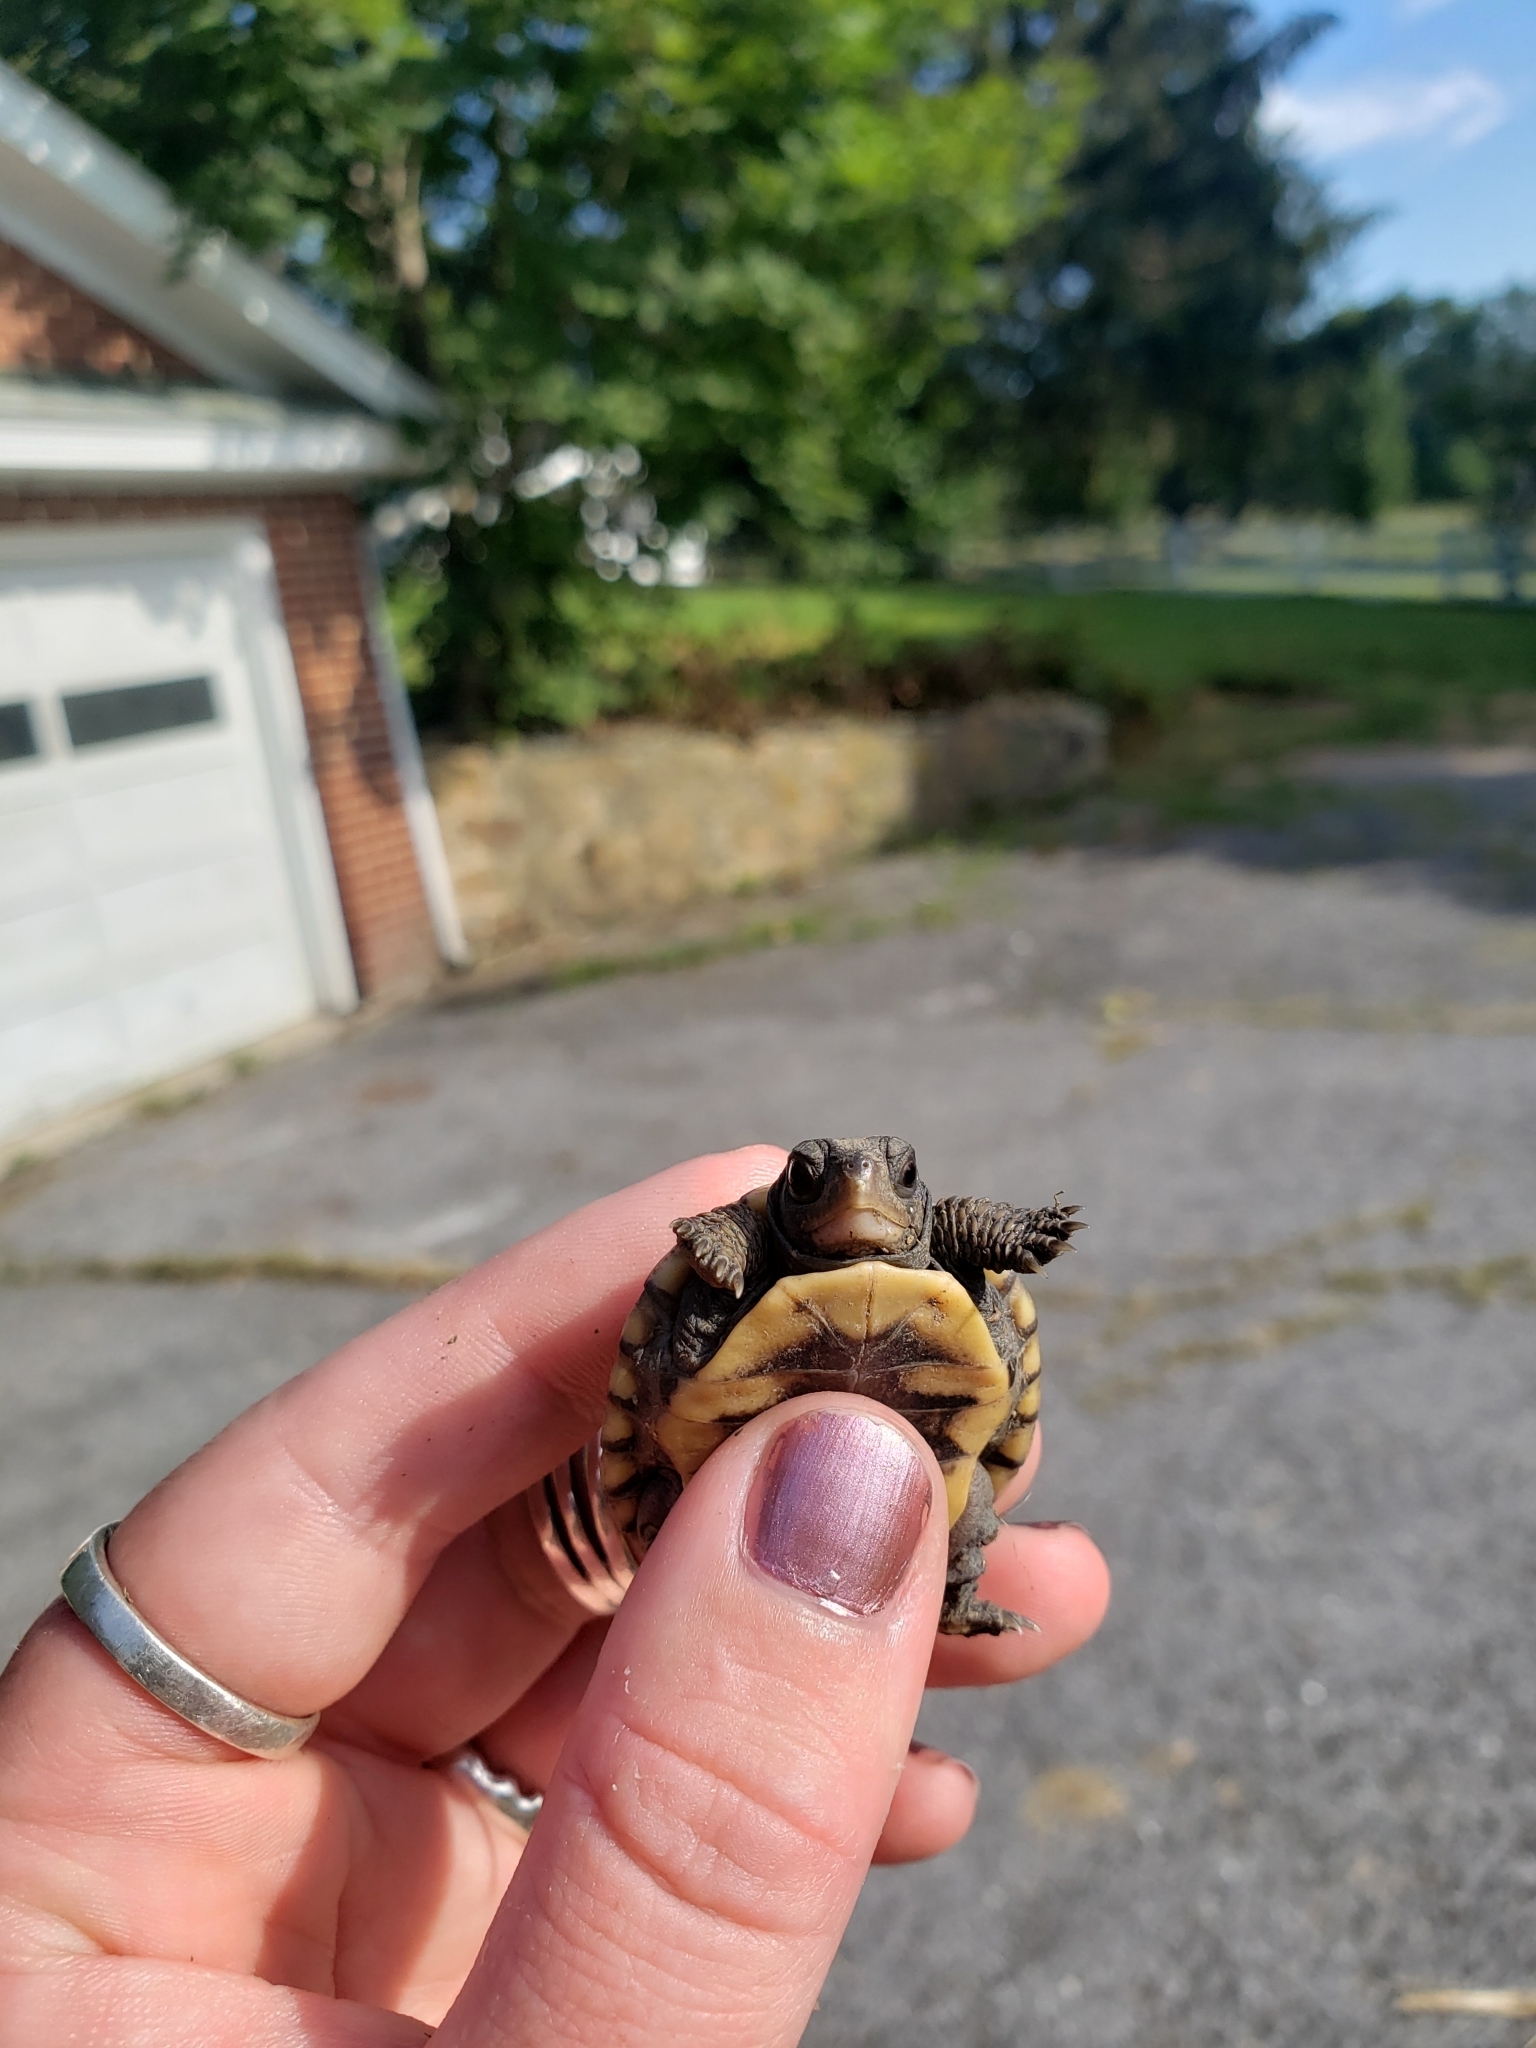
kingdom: Animalia
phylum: Chordata
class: Testudines
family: Emydidae
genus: Terrapene
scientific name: Terrapene carolina
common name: Common box turtle
